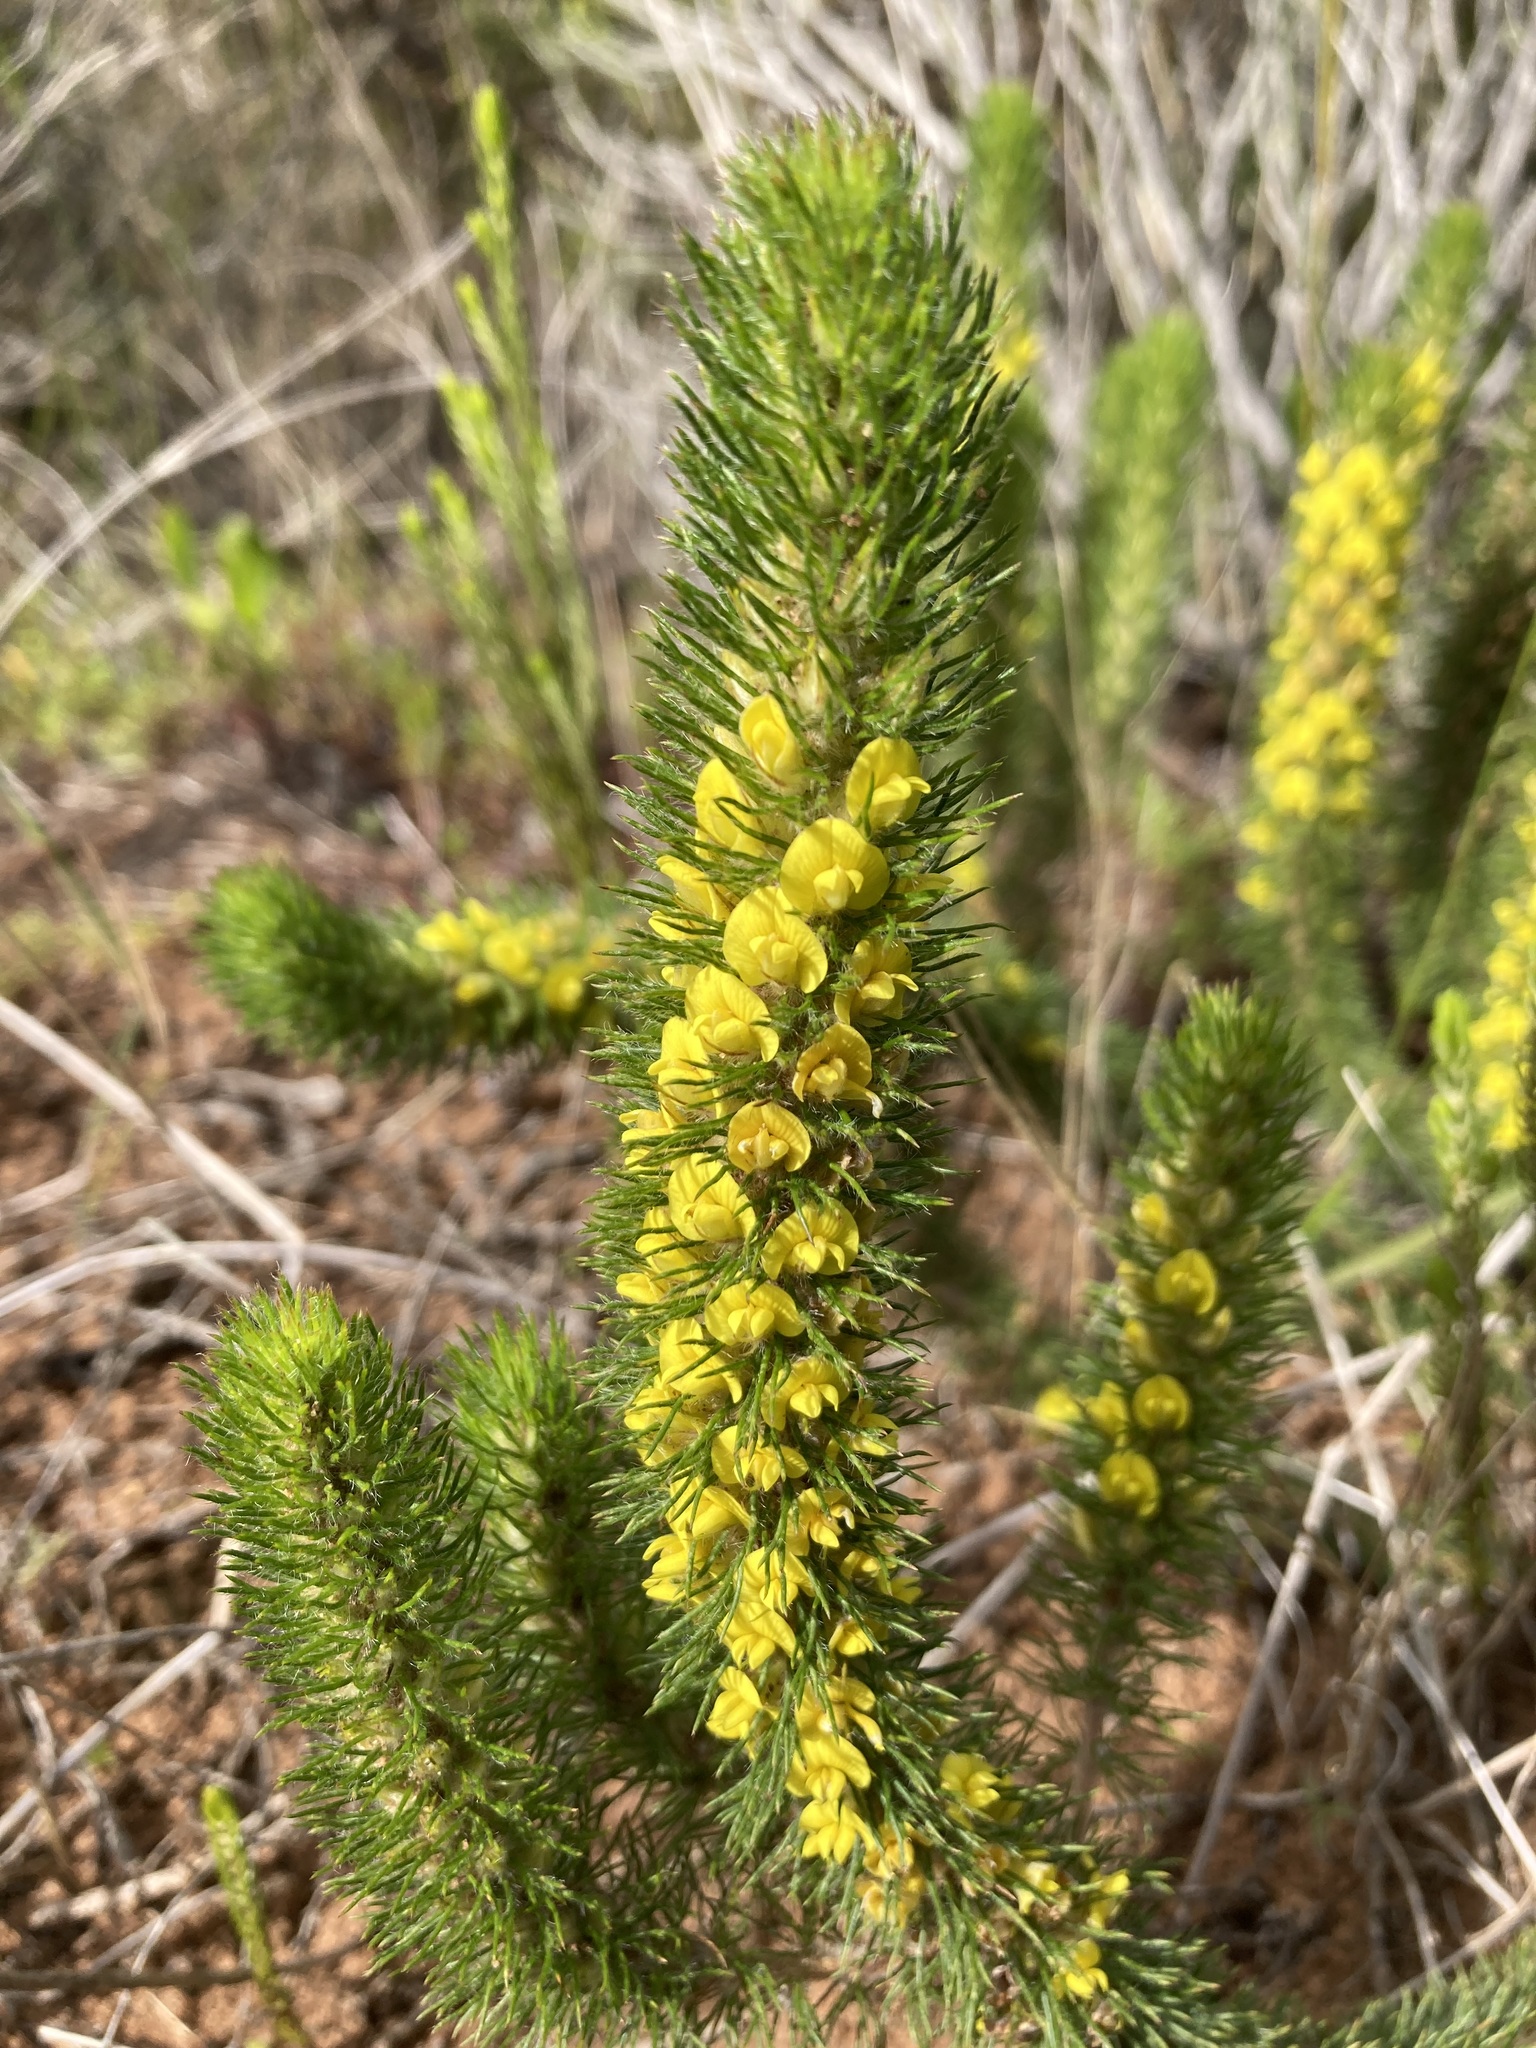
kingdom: Plantae
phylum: Tracheophyta
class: Magnoliopsida
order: Fabales
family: Fabaceae
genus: Aspalathus
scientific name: Aspalathus alopecurus
